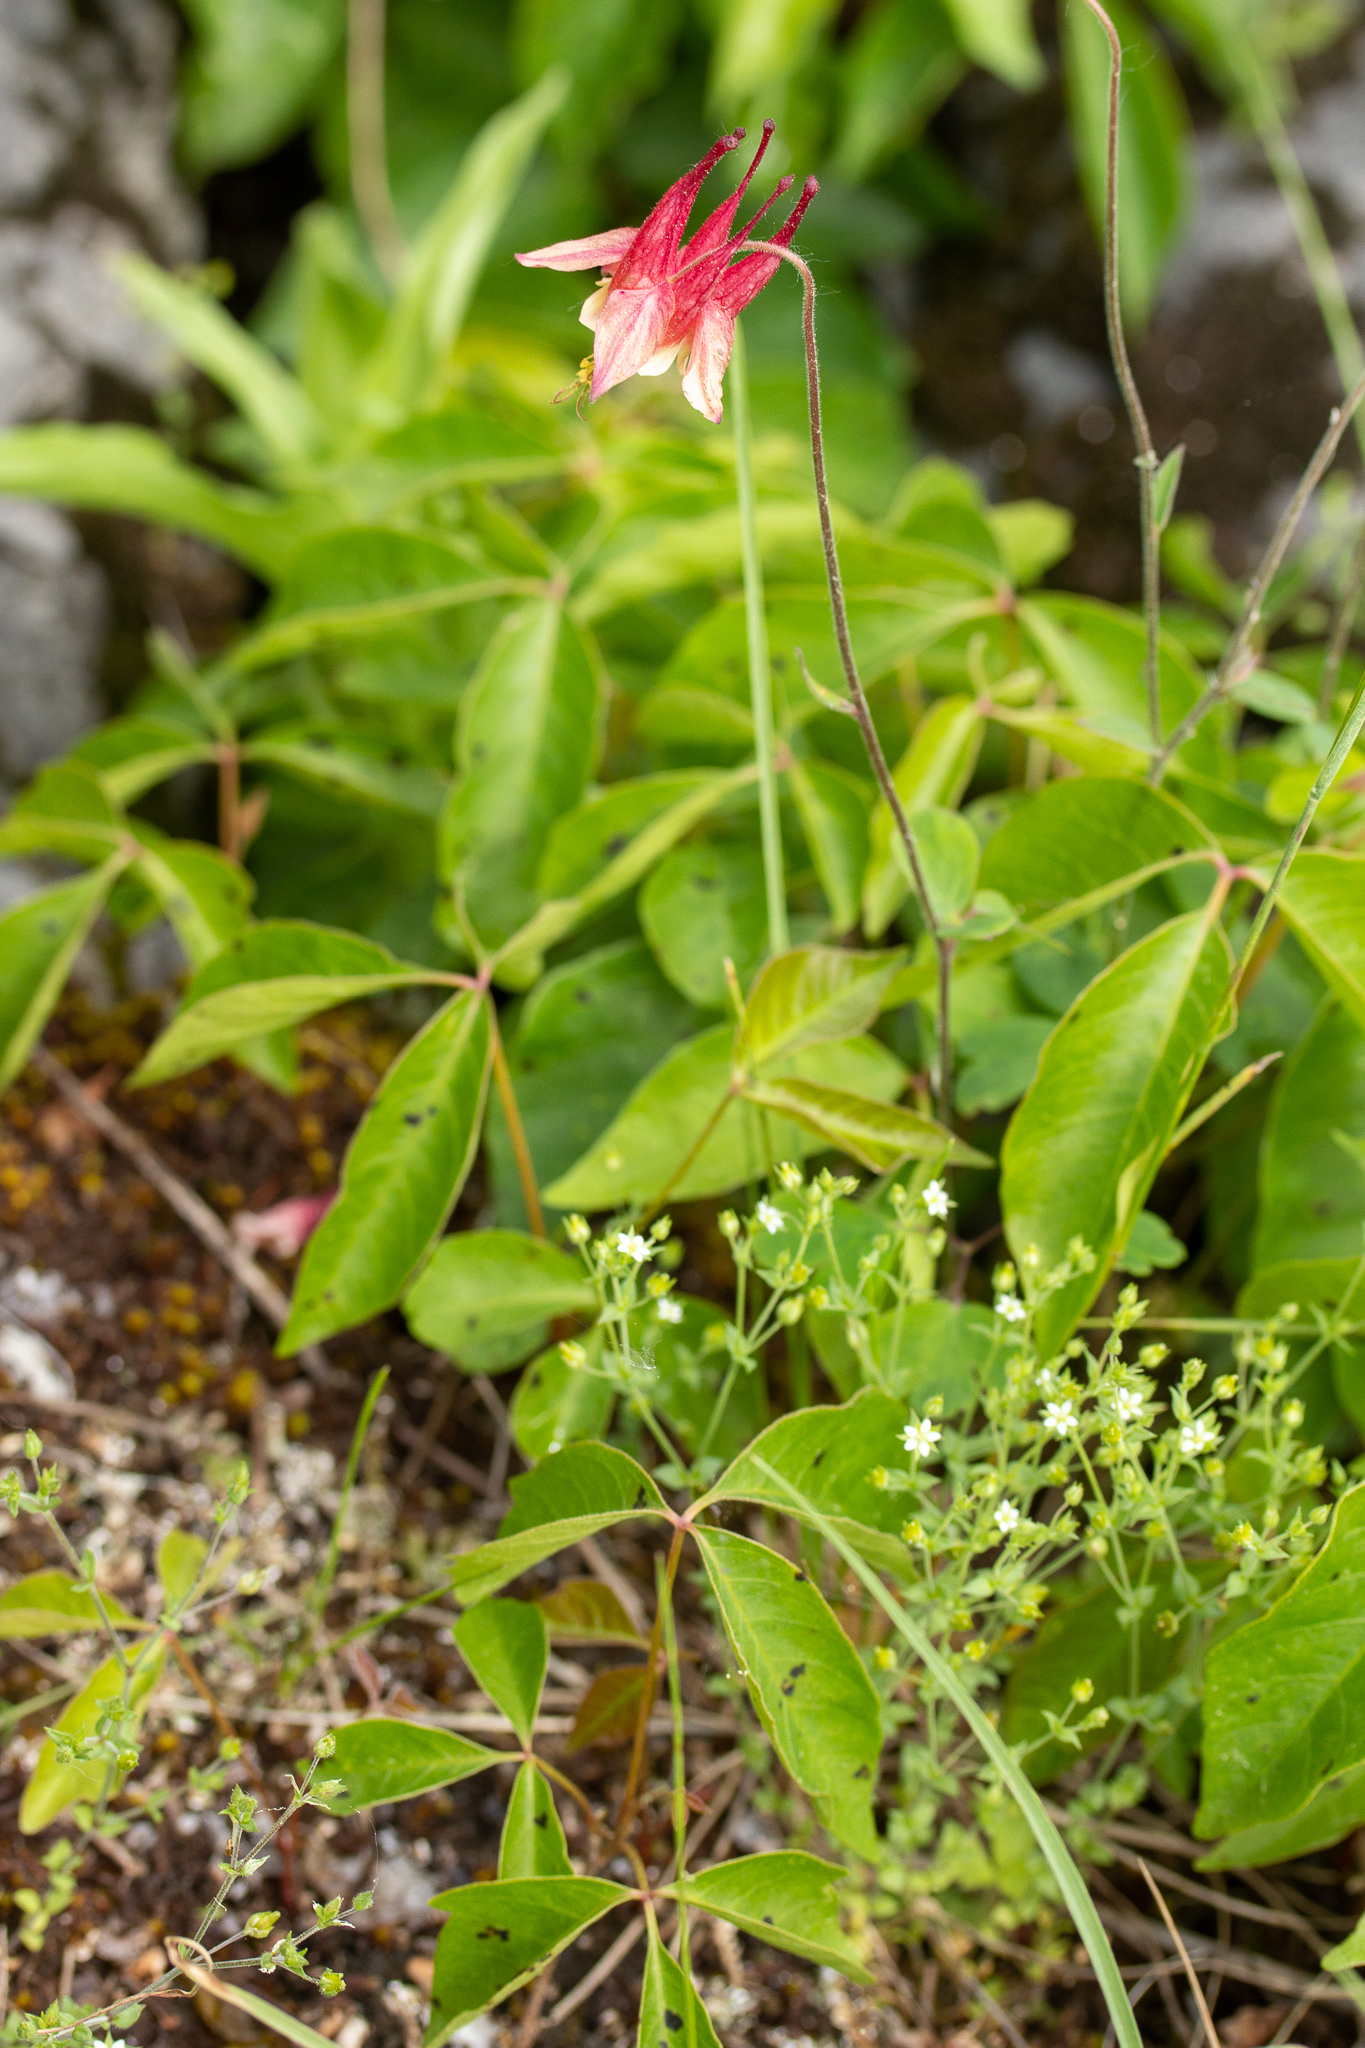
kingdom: Plantae
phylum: Tracheophyta
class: Magnoliopsida
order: Ranunculales
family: Ranunculaceae
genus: Aquilegia
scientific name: Aquilegia canadensis
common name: American columbine
